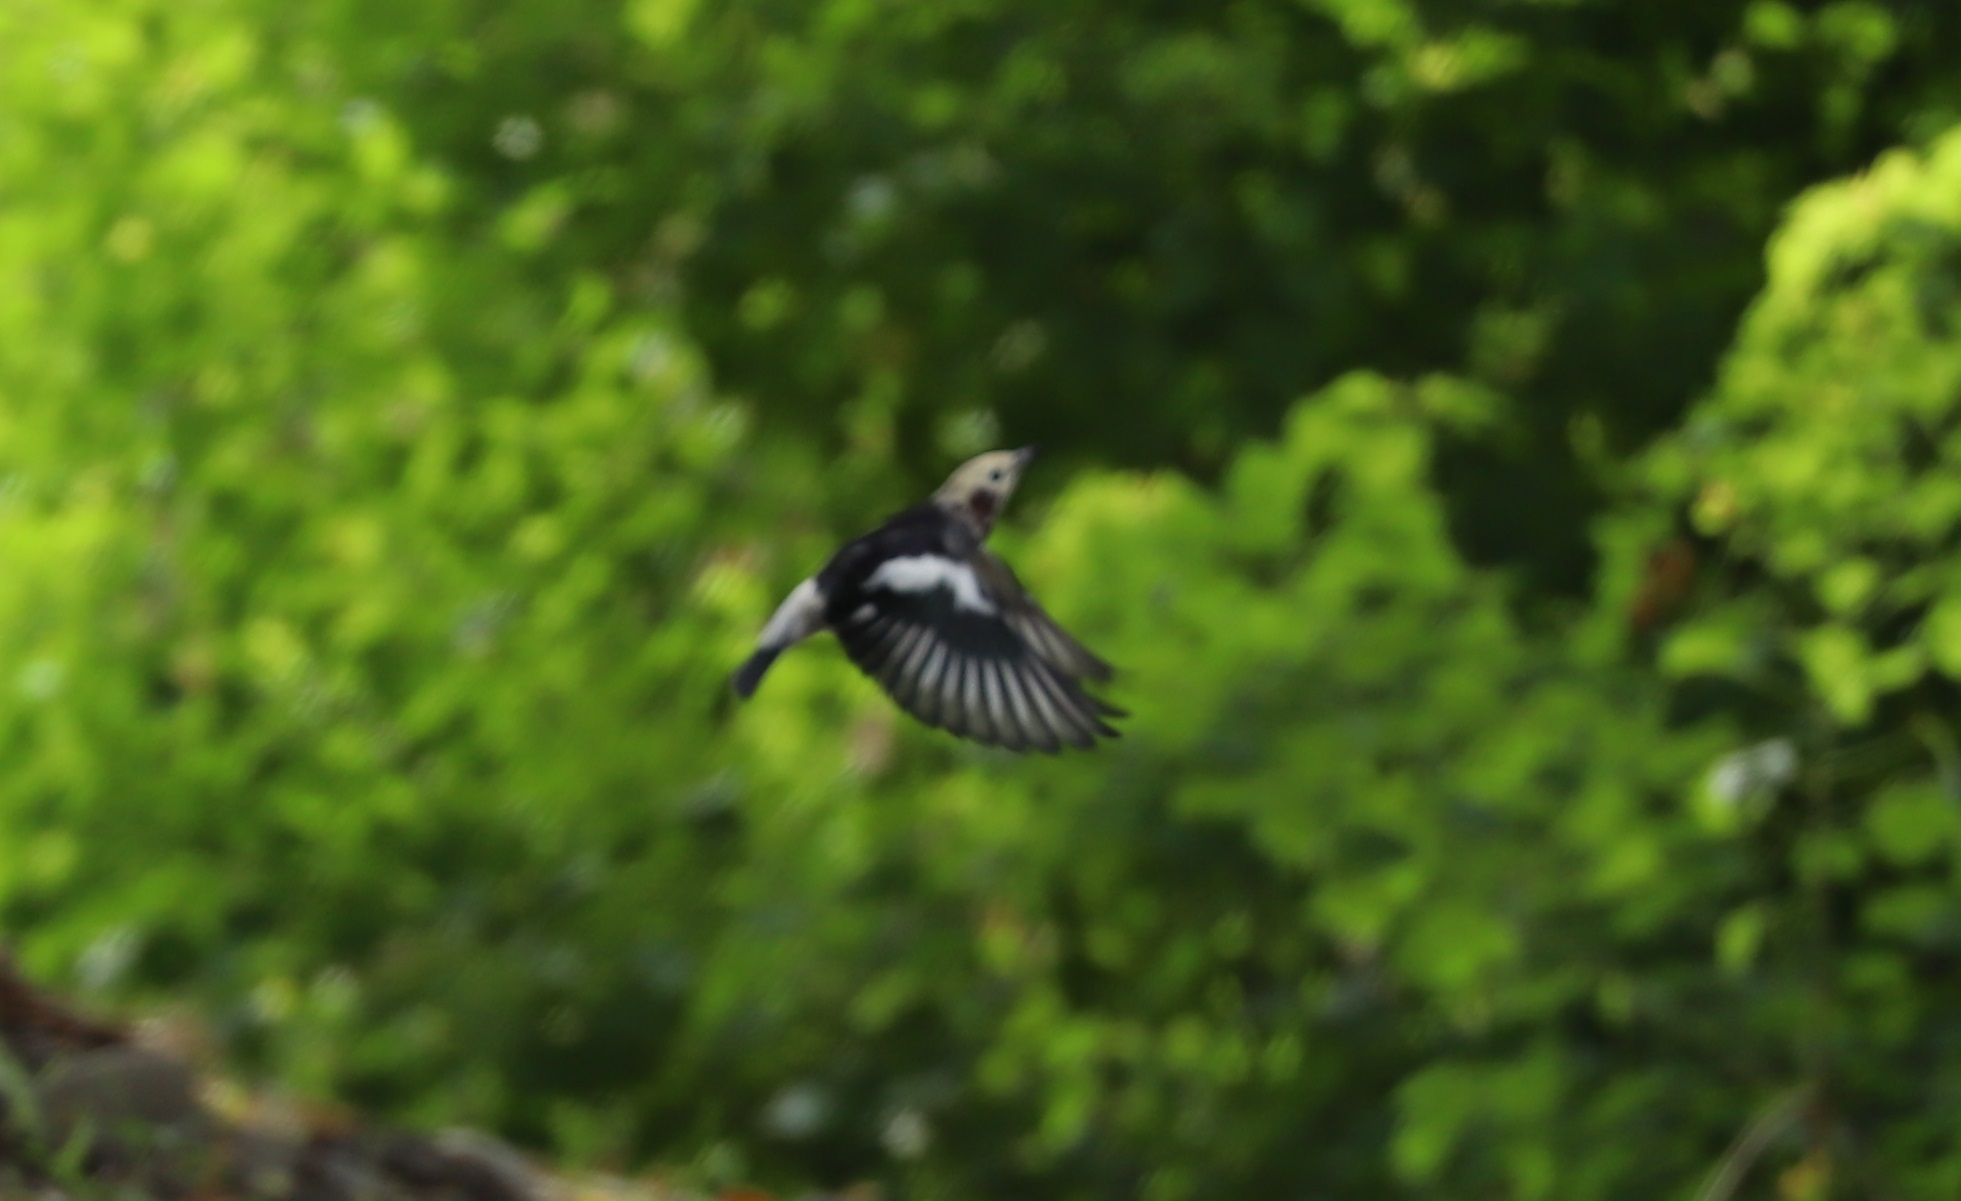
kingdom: Animalia
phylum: Chordata
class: Aves
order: Passeriformes
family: Sturnidae
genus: Agropsar
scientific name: Agropsar philippensis
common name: Chestnut-cheeked starling
